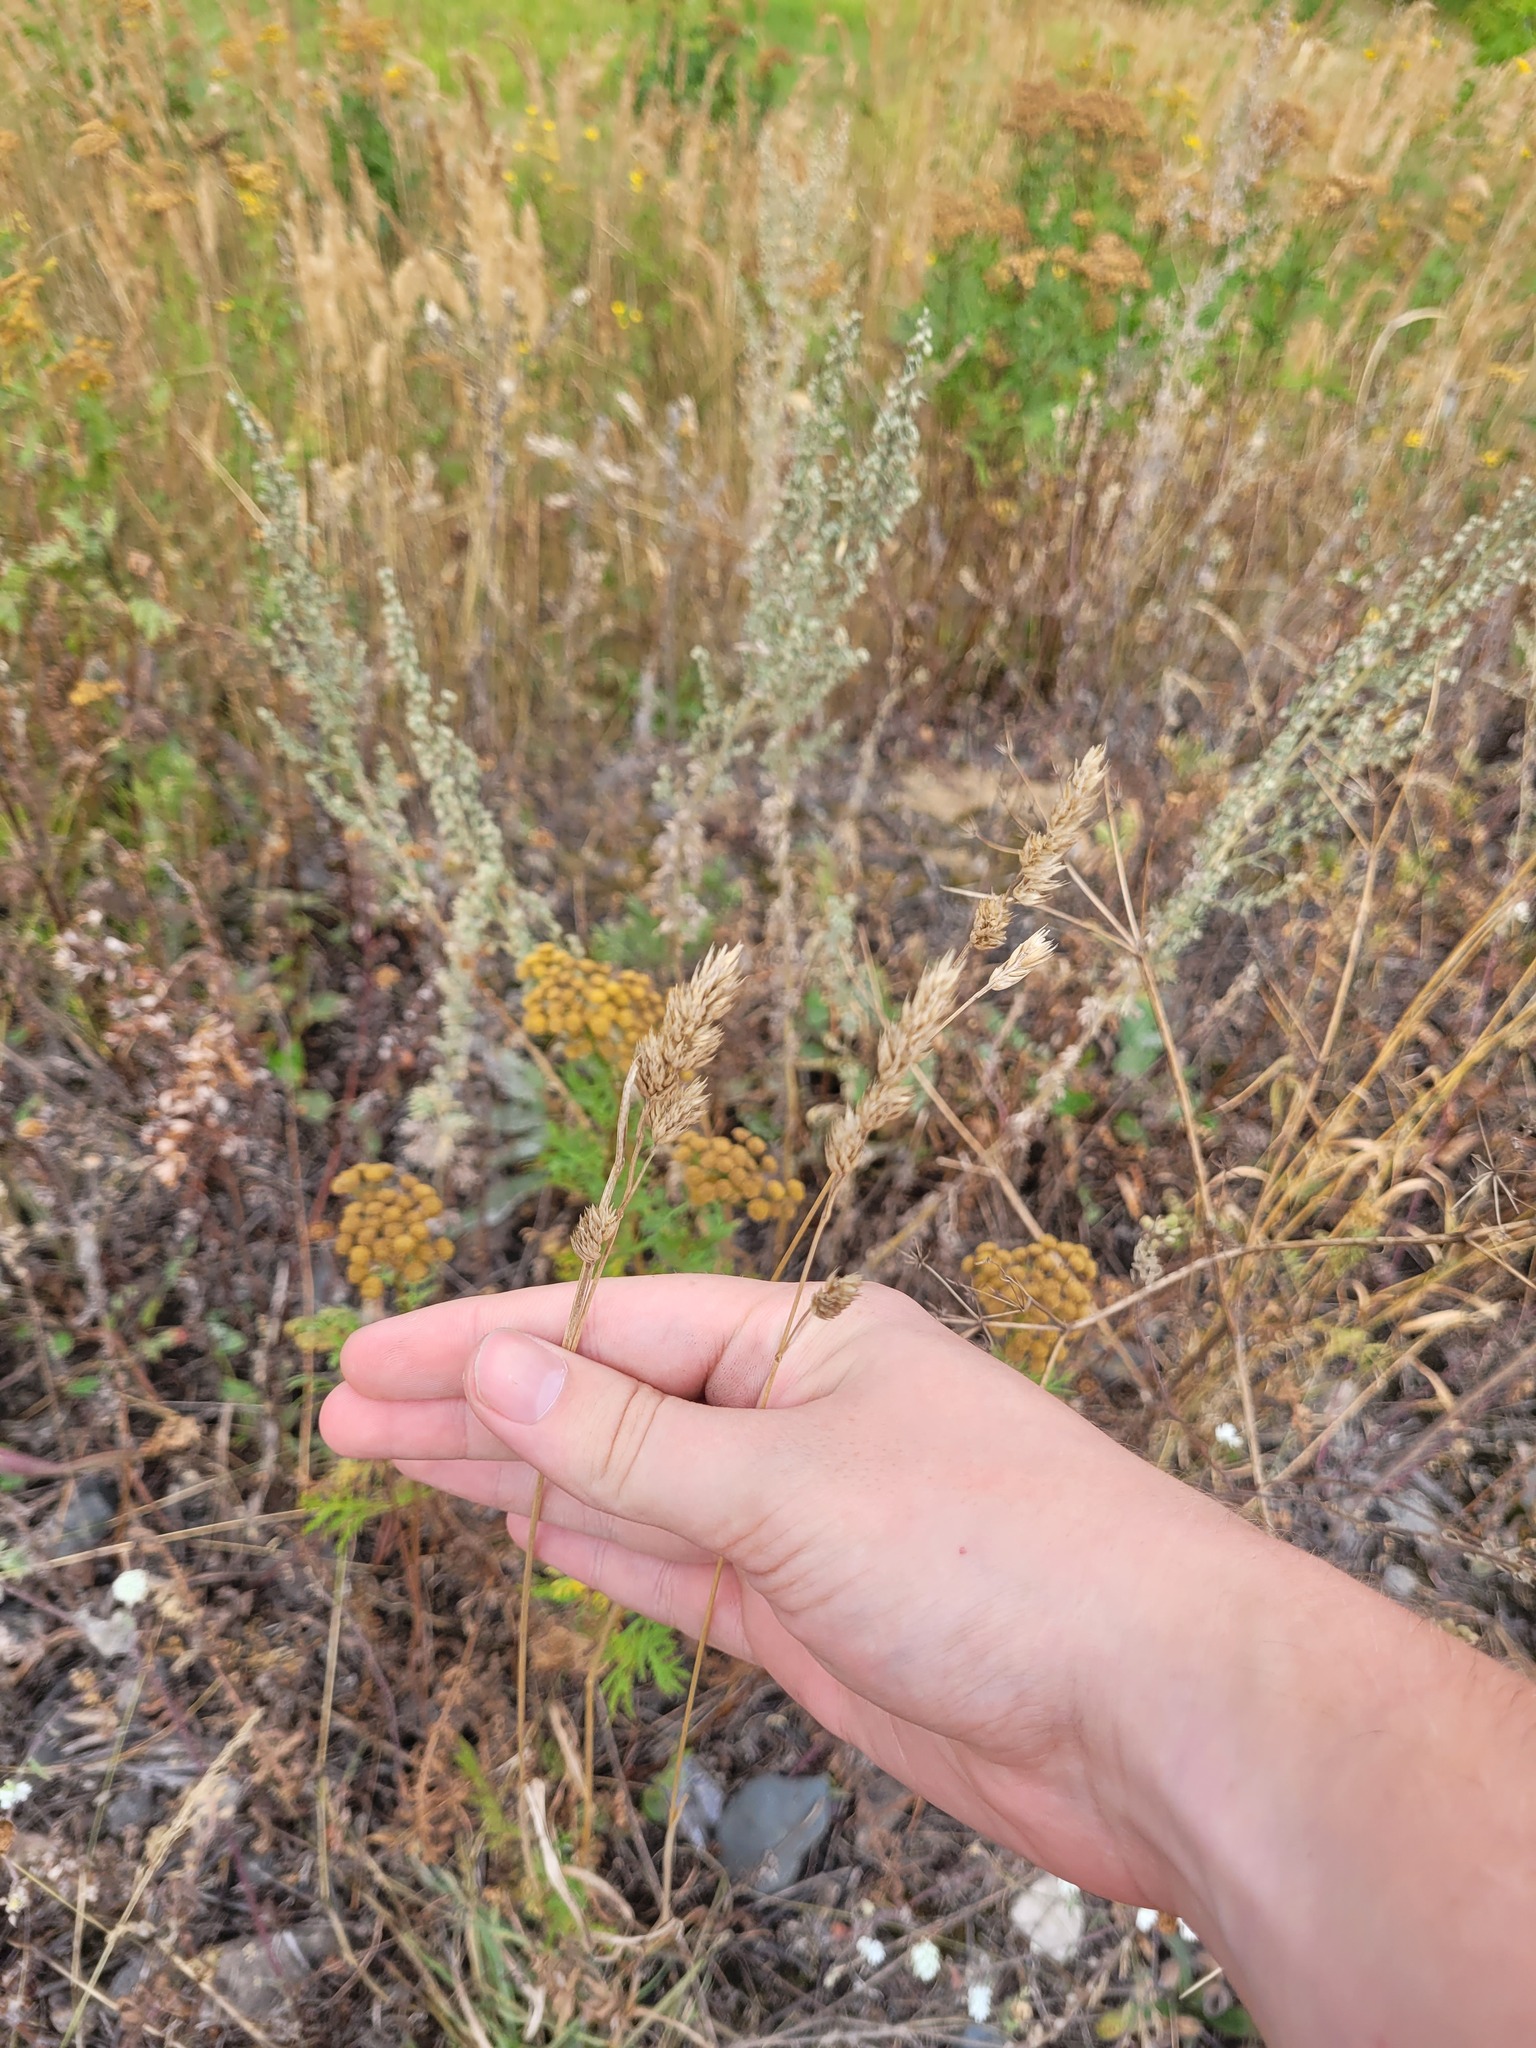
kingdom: Plantae
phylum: Tracheophyta
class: Liliopsida
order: Poales
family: Poaceae
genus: Dactylis
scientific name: Dactylis glomerata
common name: Orchardgrass
